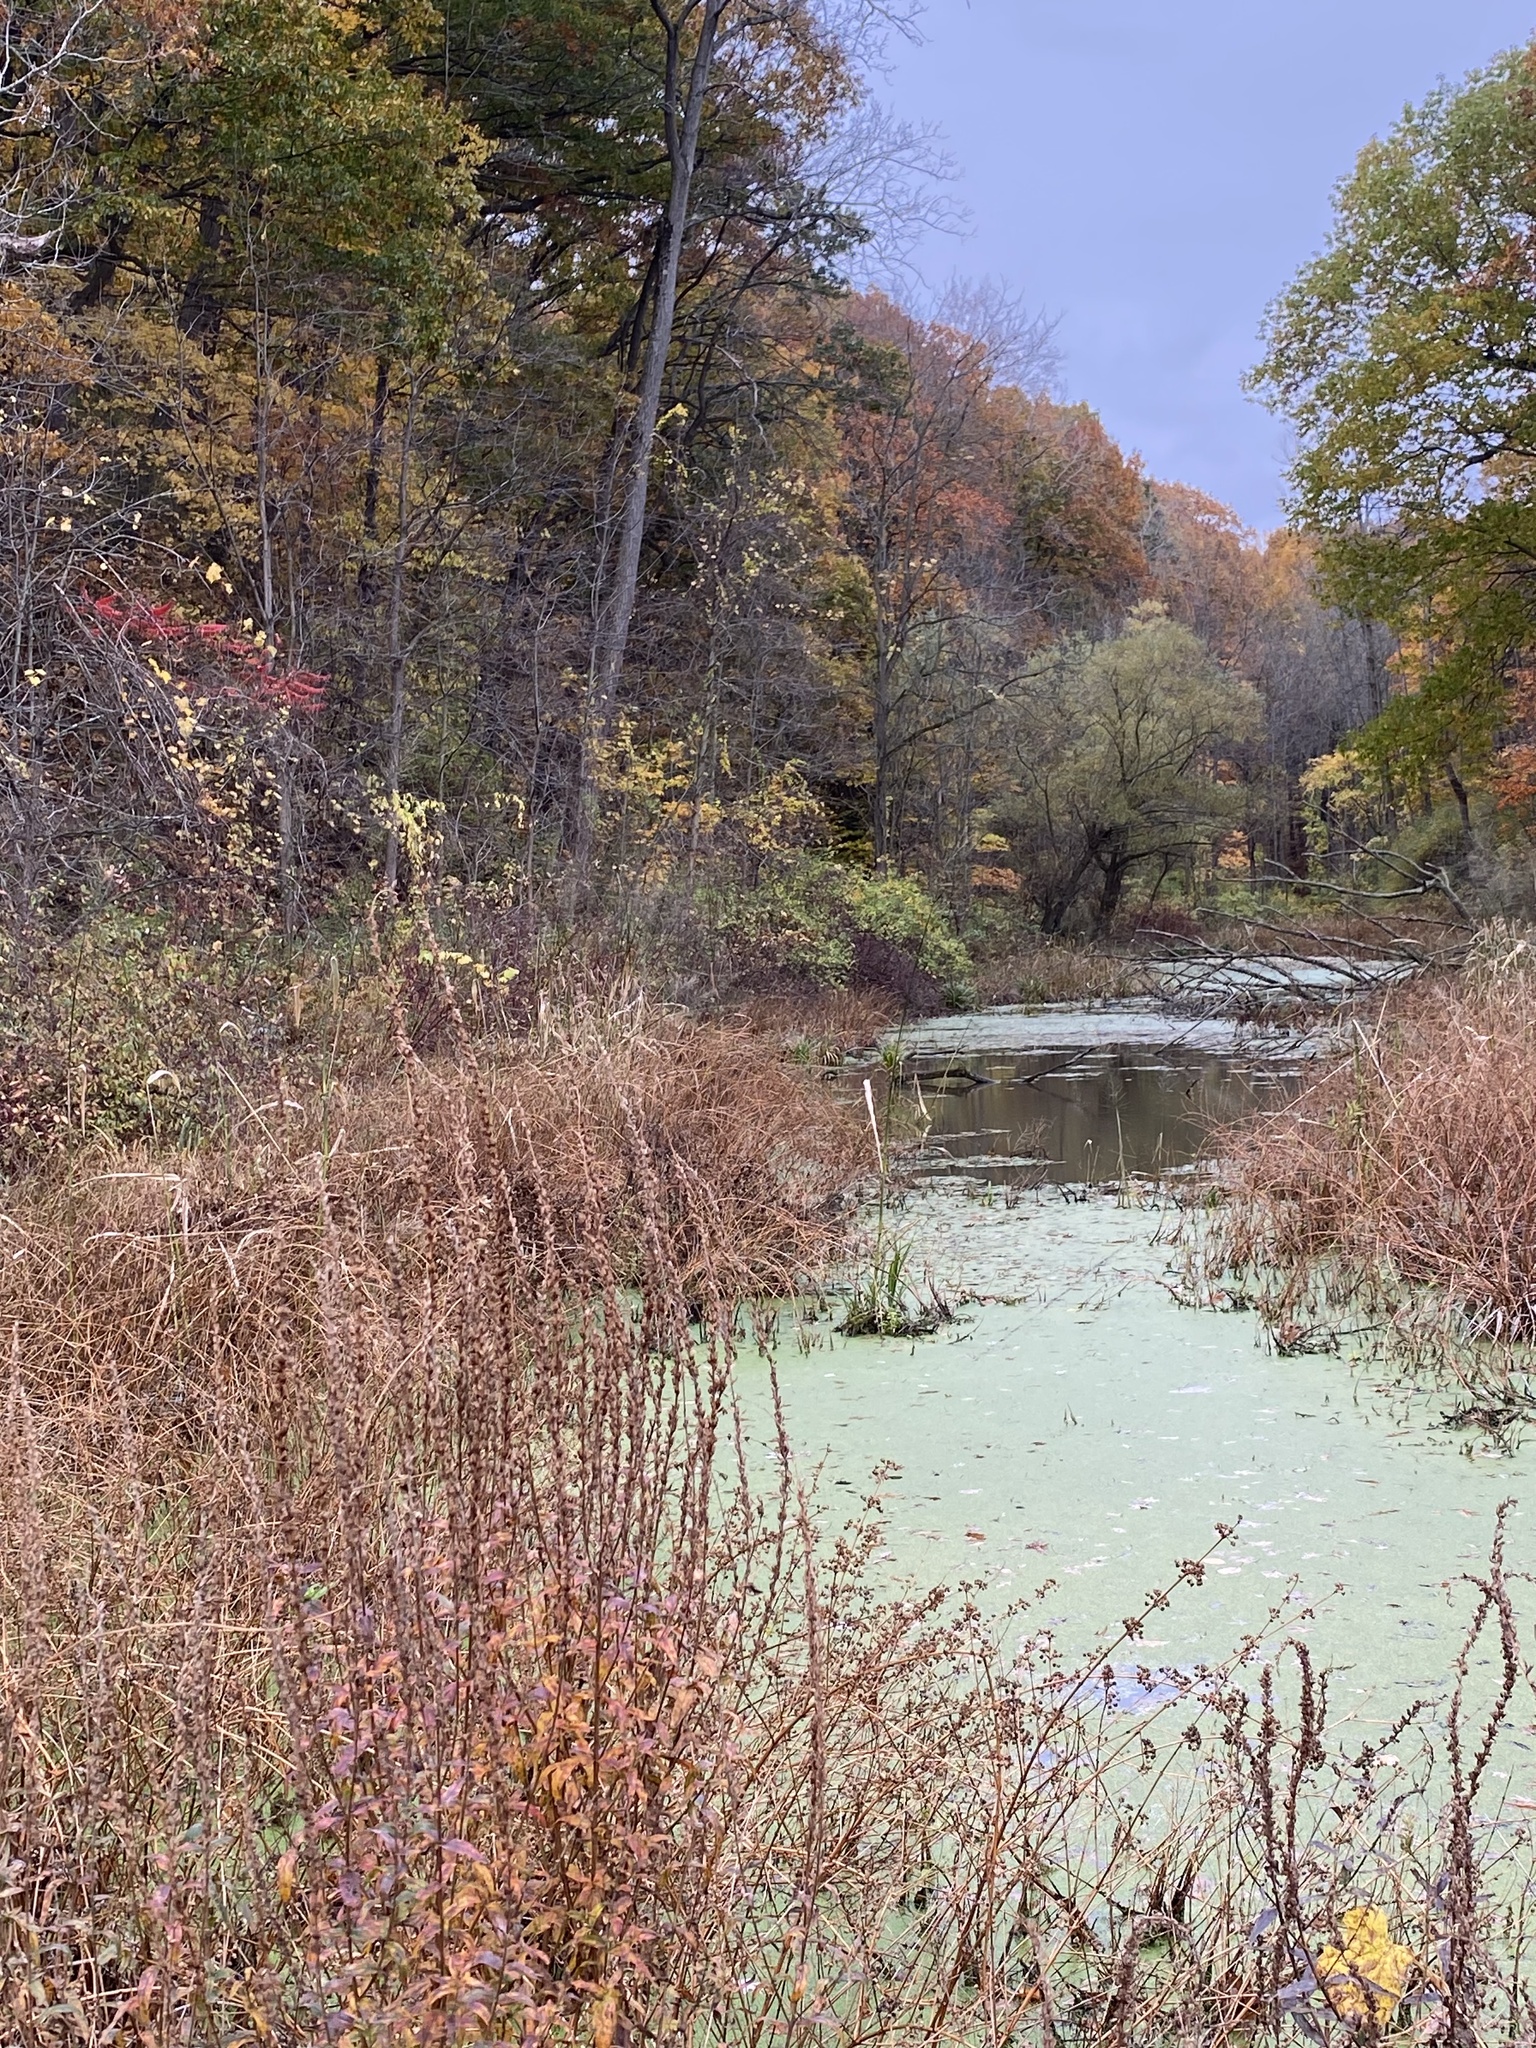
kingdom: Plantae
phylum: Tracheophyta
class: Magnoliopsida
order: Myrtales
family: Lythraceae
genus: Lythrum
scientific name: Lythrum salicaria
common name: Purple loosestrife
